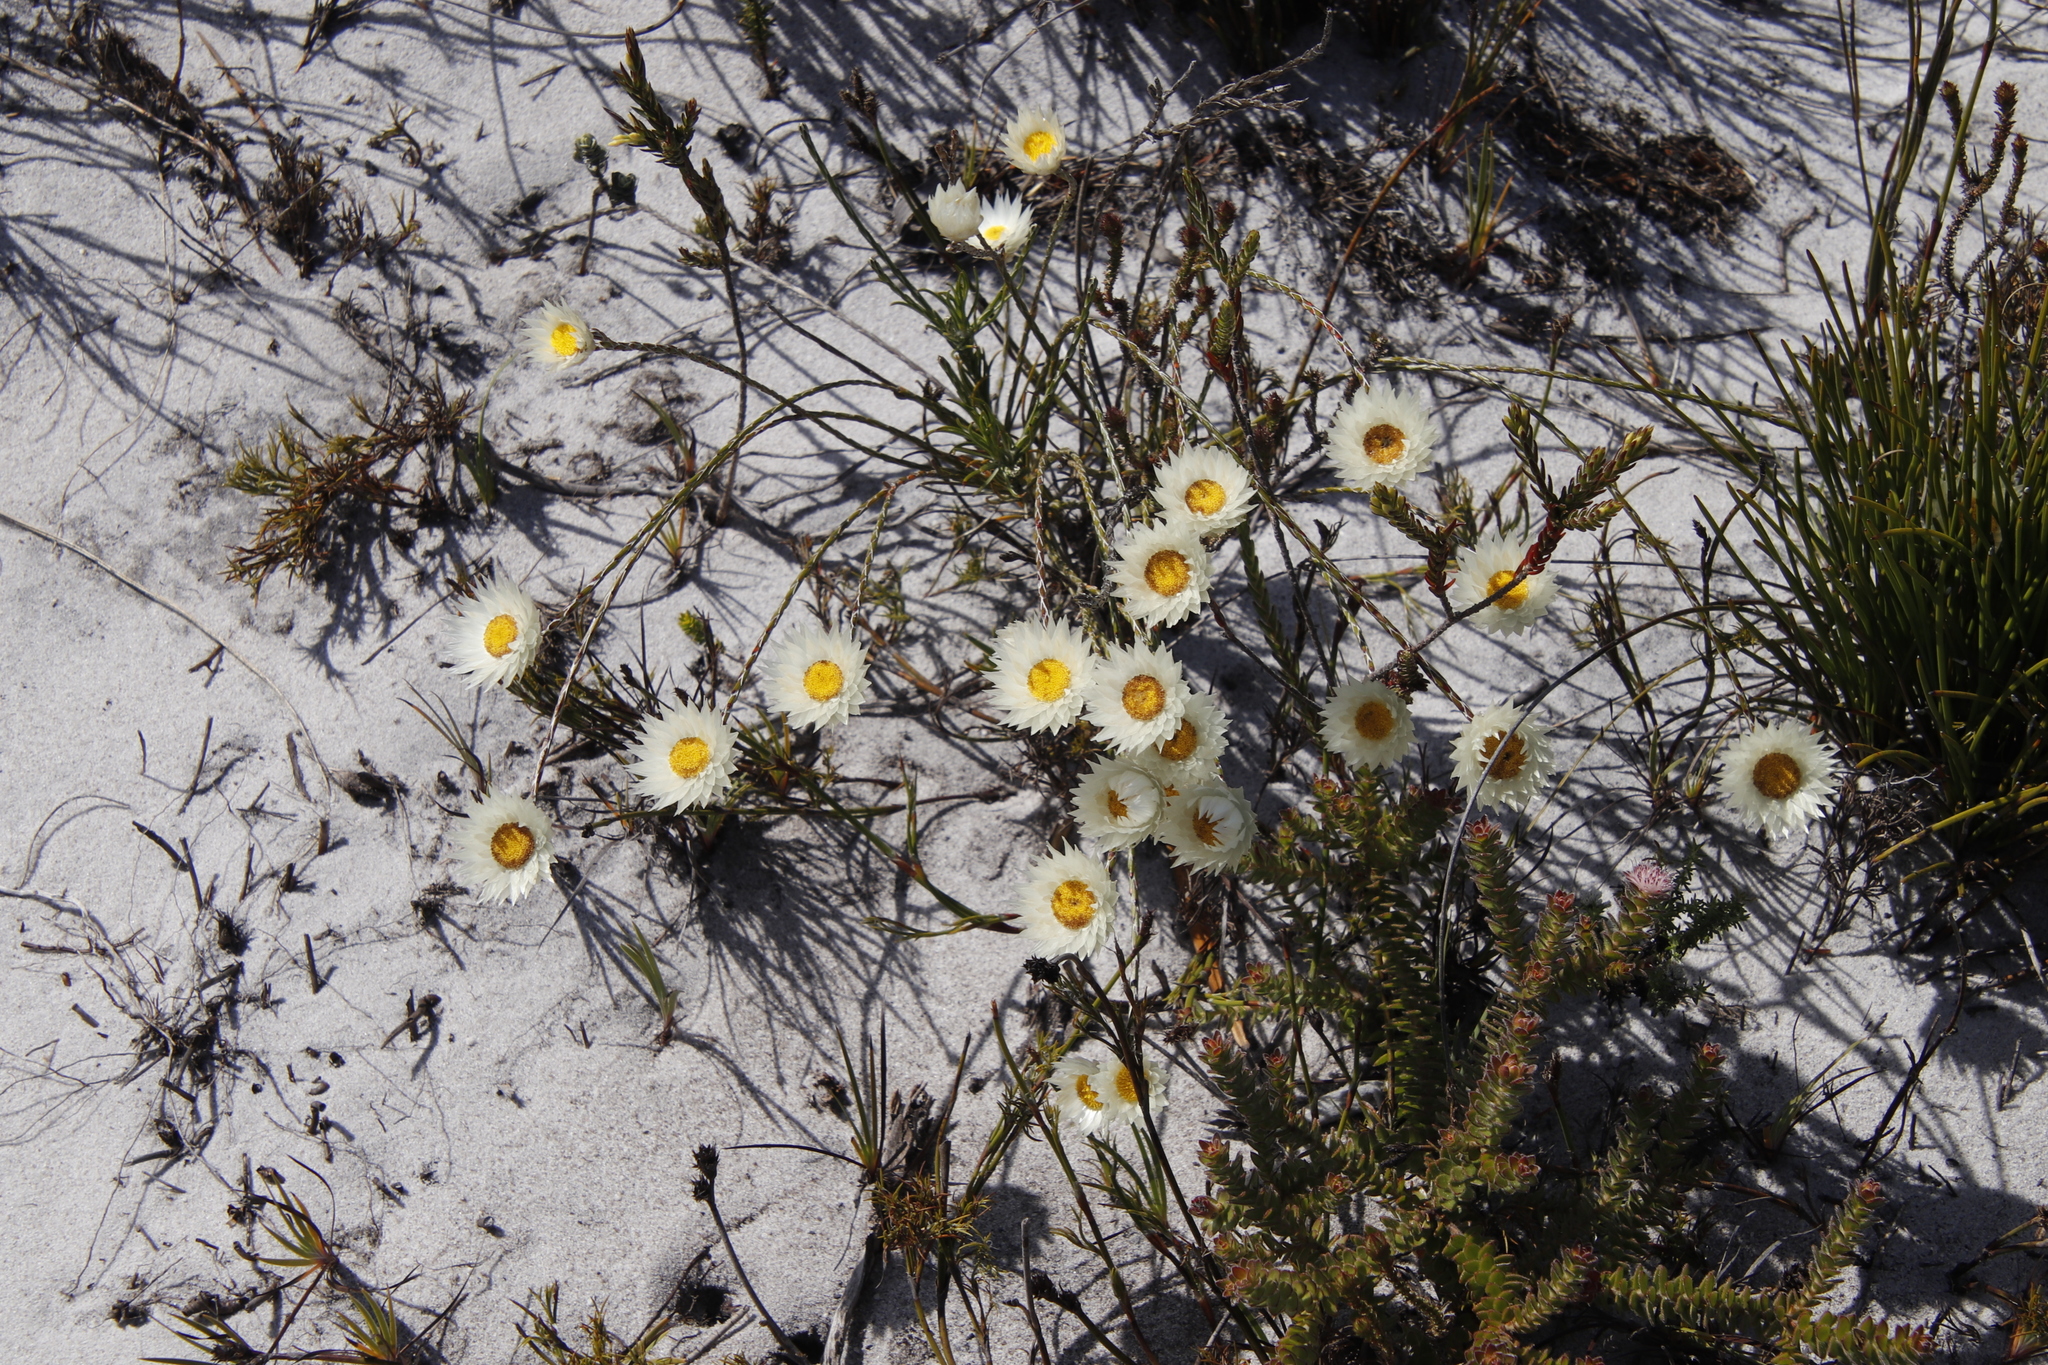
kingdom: Plantae
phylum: Tracheophyta
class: Magnoliopsida
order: Asterales
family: Asteraceae
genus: Edmondia
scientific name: Edmondia sesamoides
